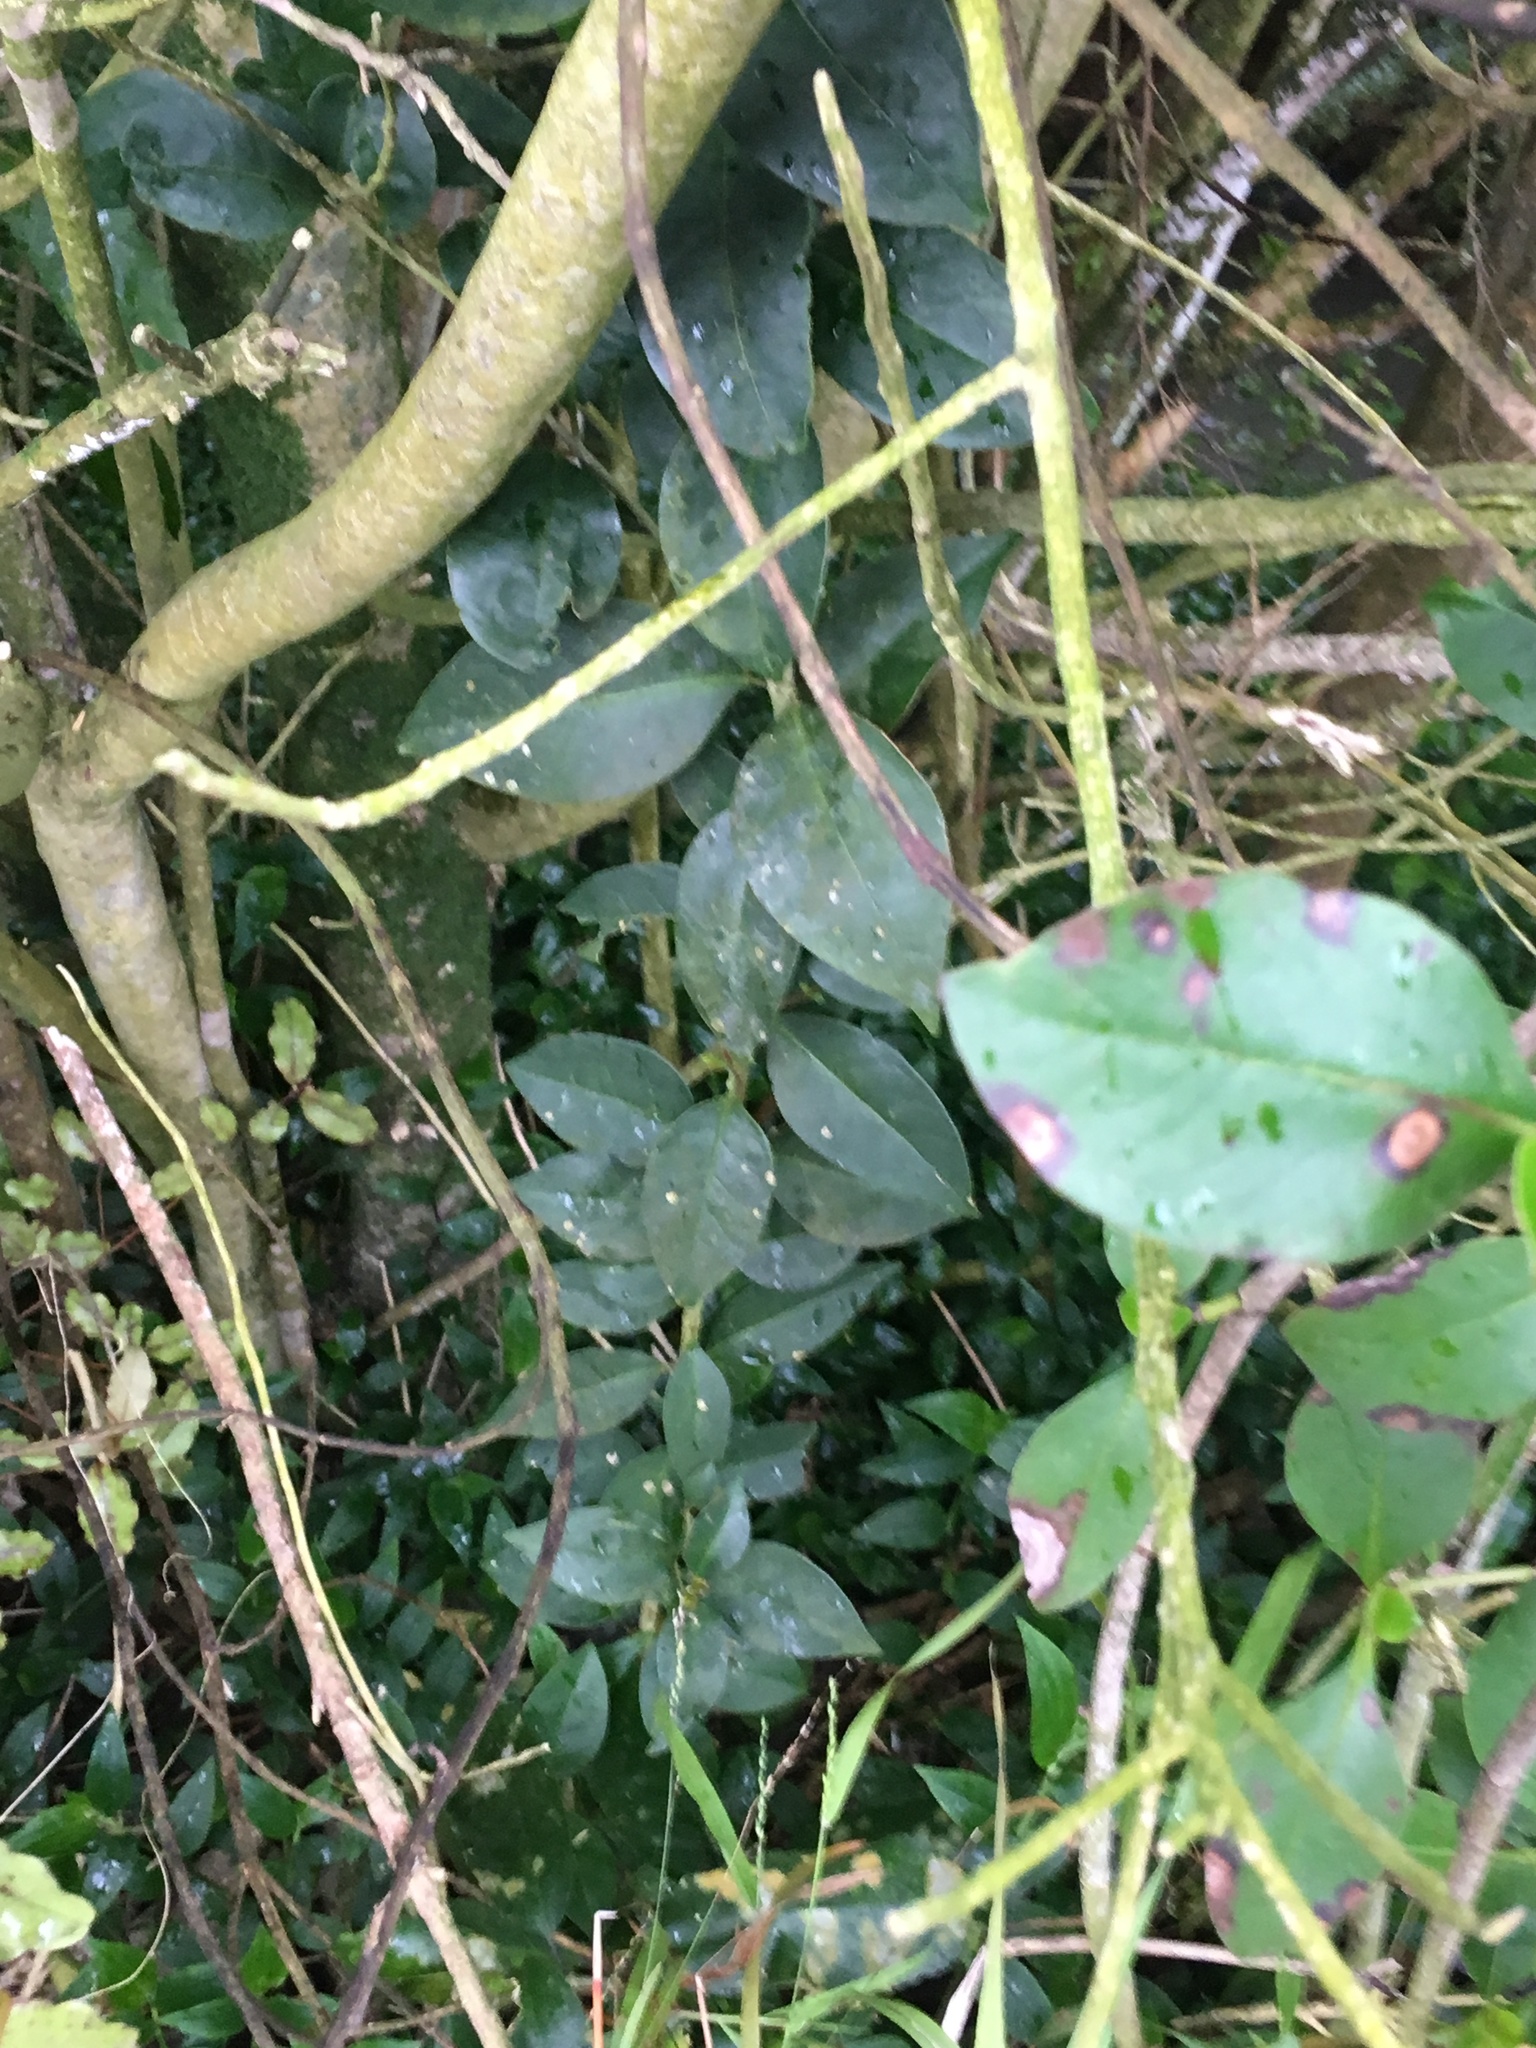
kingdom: Plantae
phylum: Tracheophyta
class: Magnoliopsida
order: Lamiales
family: Oleaceae
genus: Ligustrum
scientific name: Ligustrum lucidum
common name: Glossy privet
